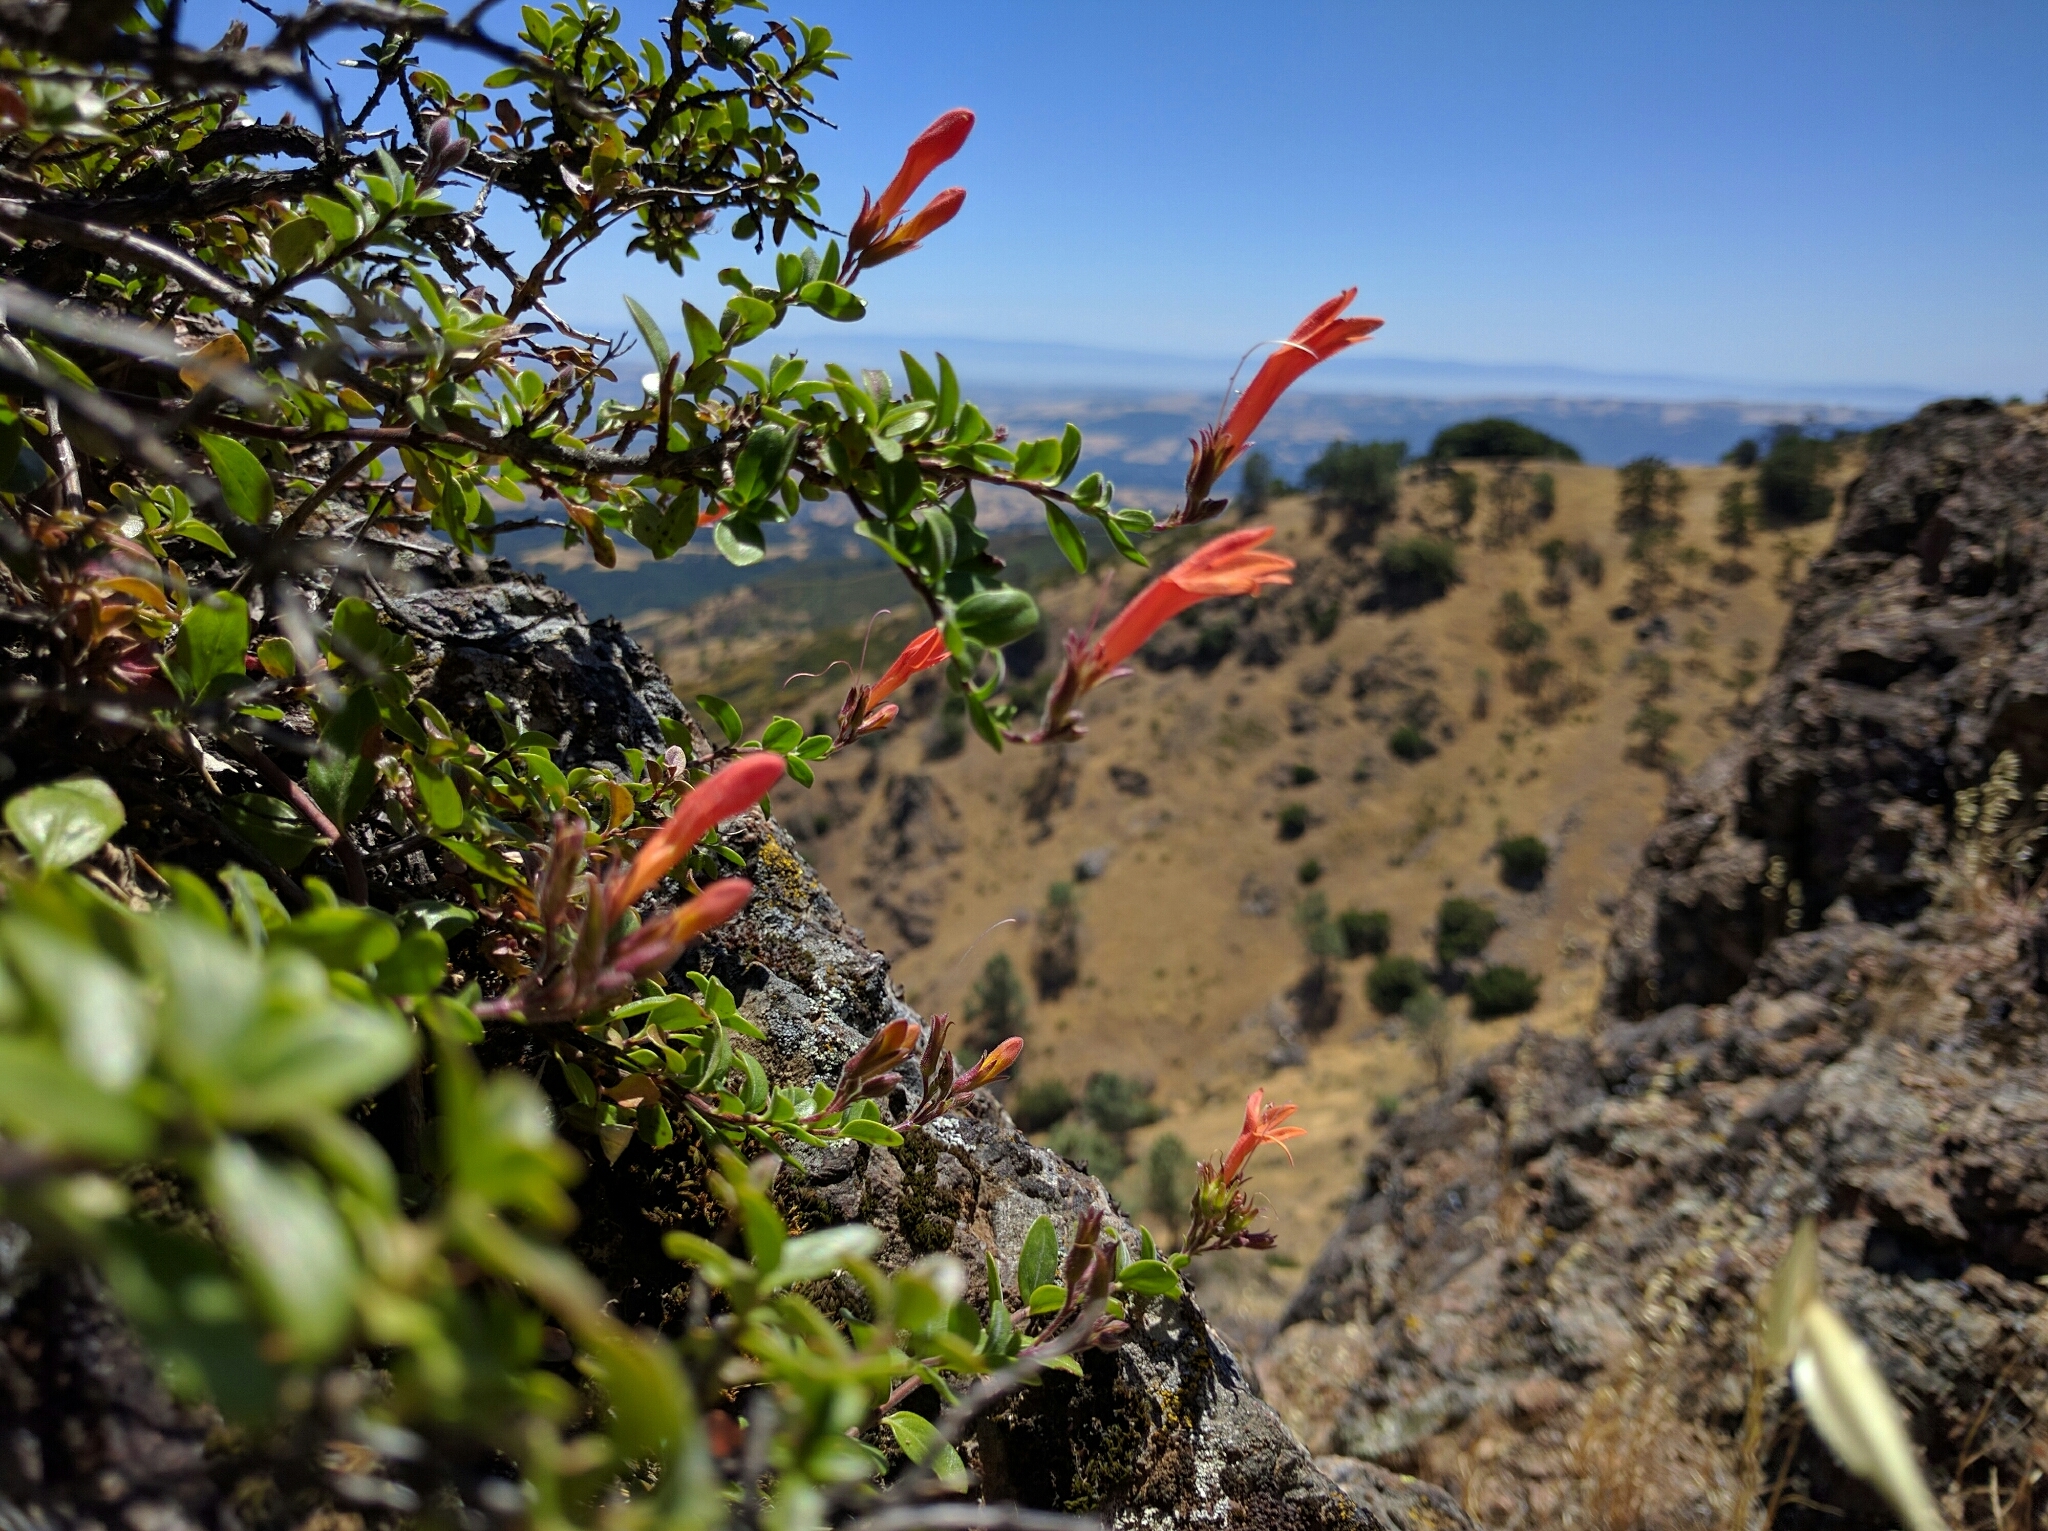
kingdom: Plantae
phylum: Tracheophyta
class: Magnoliopsida
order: Lamiales
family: Plantaginaceae
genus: Keckiella
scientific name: Keckiella corymbosa
